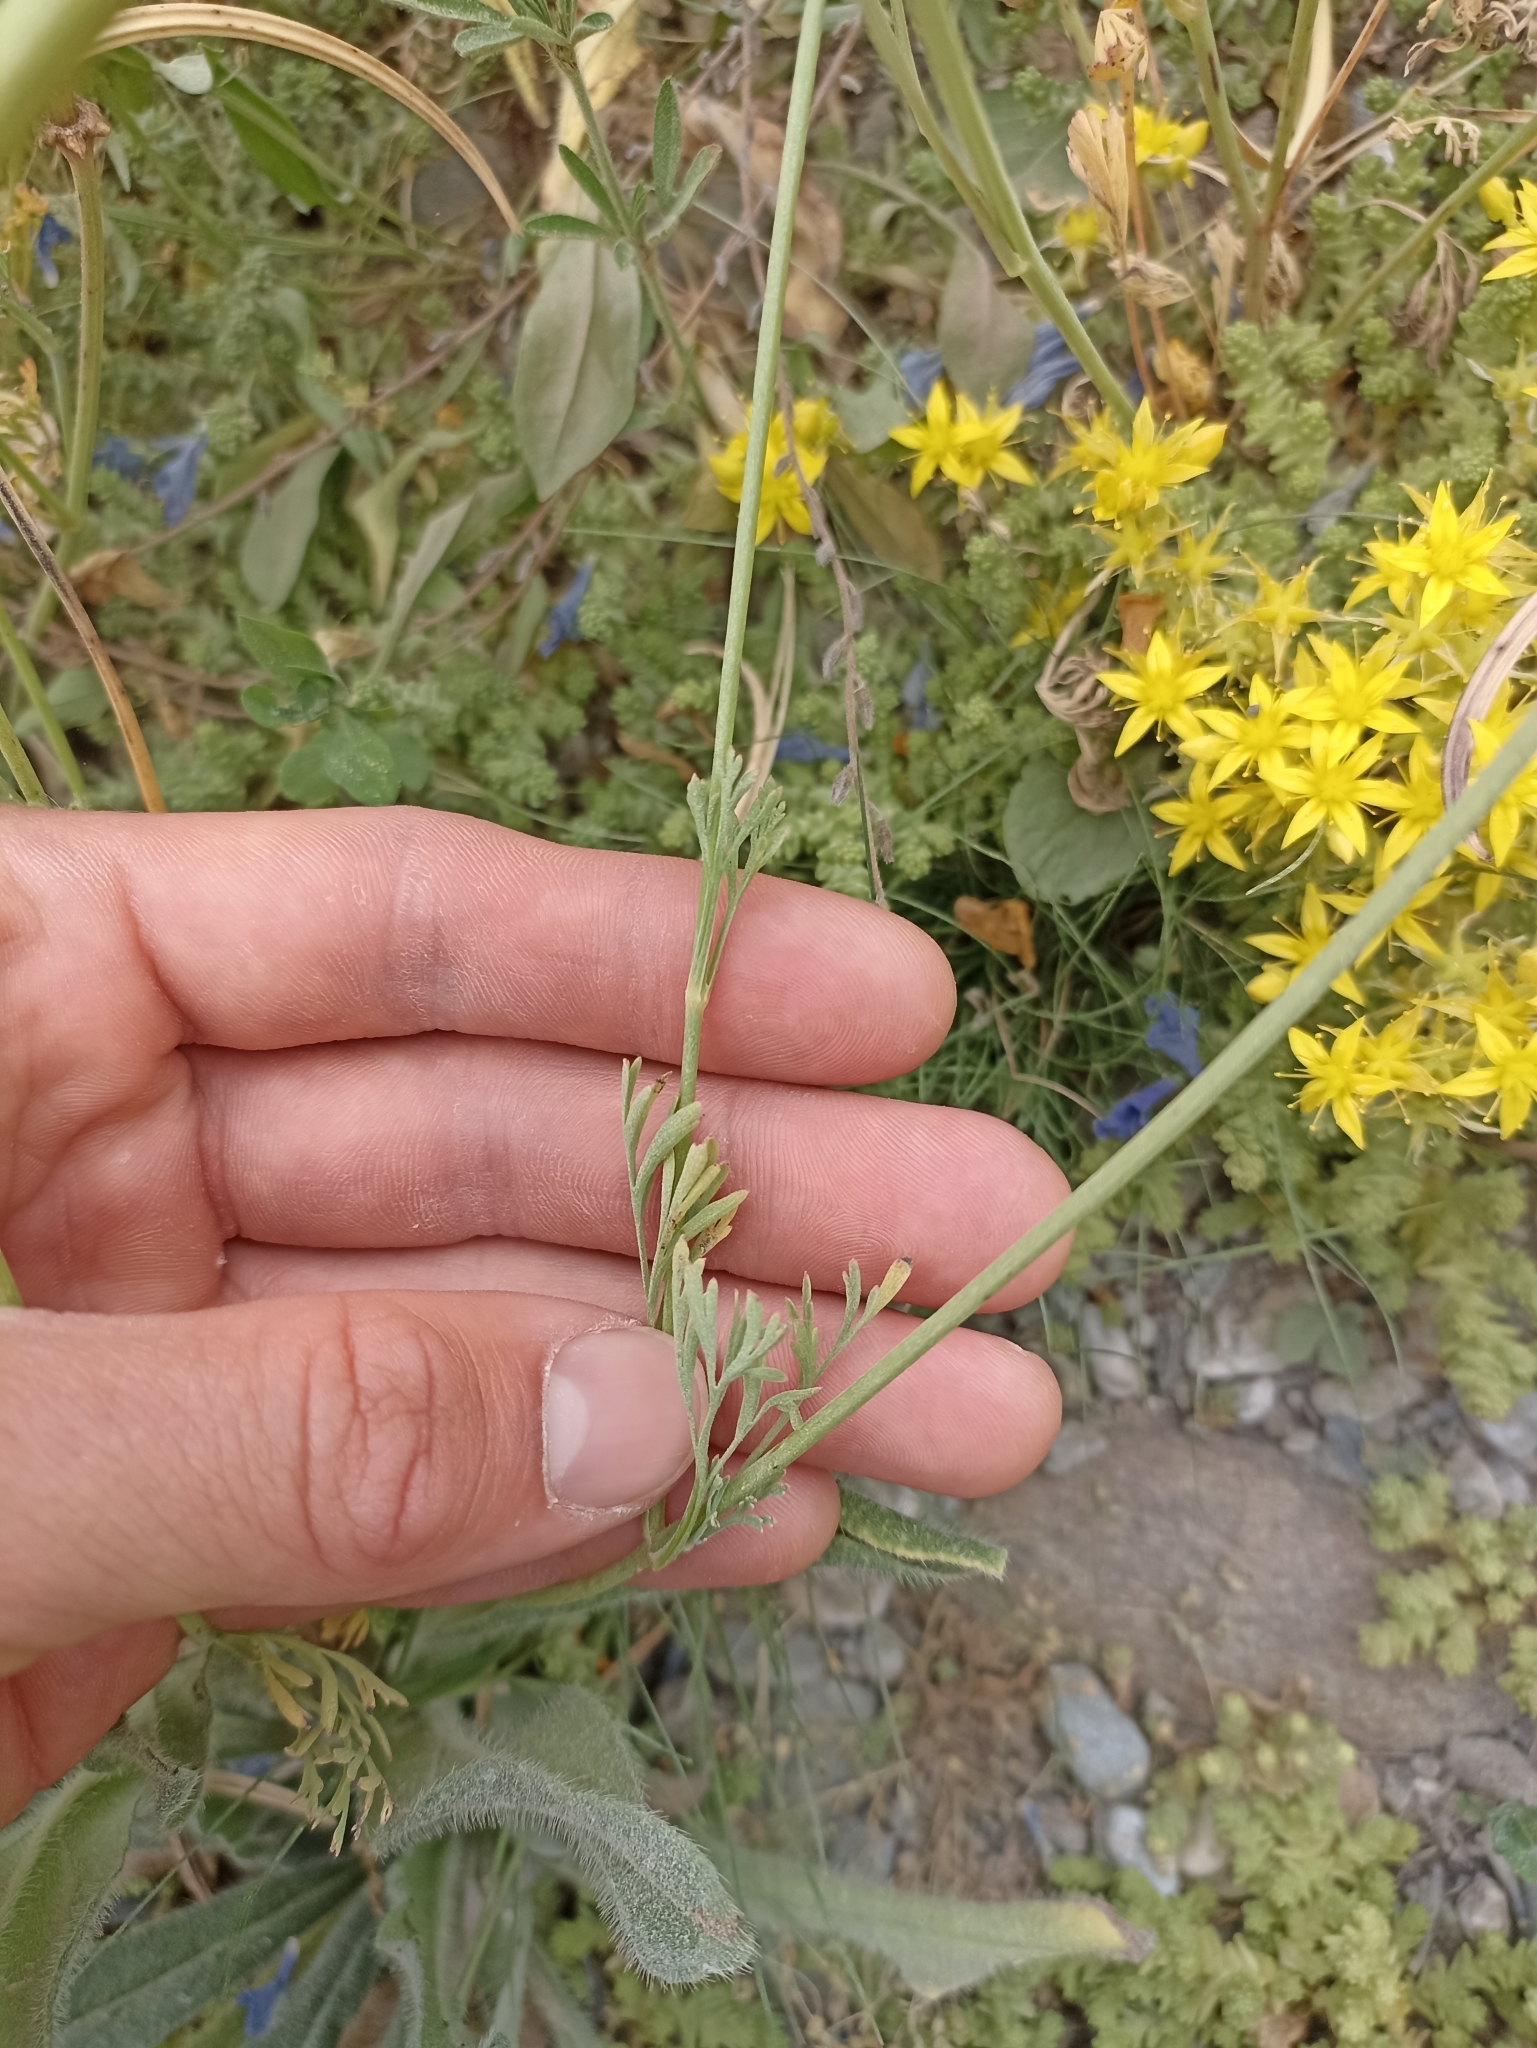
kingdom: Plantae
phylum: Tracheophyta
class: Magnoliopsida
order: Ranunculales
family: Papaveraceae
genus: Eschscholzia
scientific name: Eschscholzia californica
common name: California poppy
